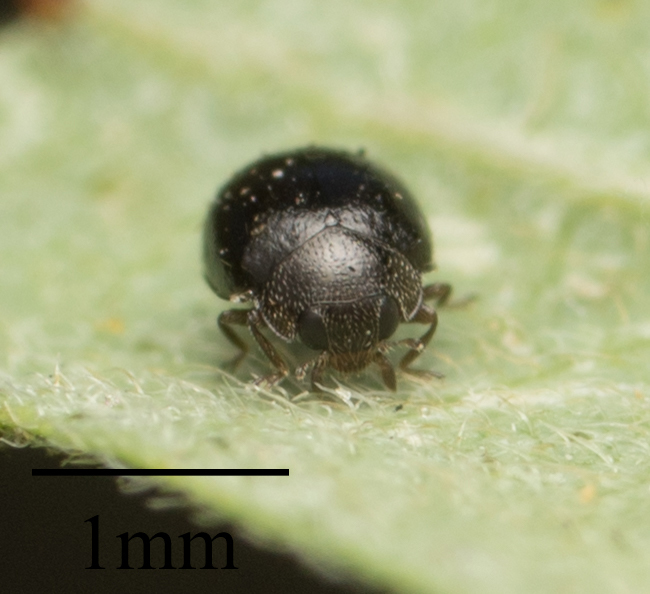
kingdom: Animalia
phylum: Arthropoda
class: Insecta
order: Coleoptera
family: Coccinellidae
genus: Zilus
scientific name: Zilus aterrimus
